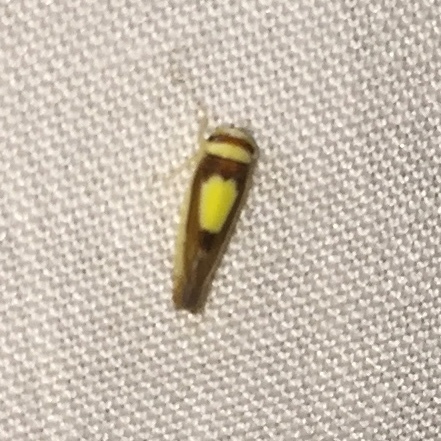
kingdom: Animalia
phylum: Arthropoda
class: Insecta
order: Hemiptera
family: Cicadellidae
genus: Colladonus
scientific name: Colladonus clitellarius
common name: The saddleback leafhopper
